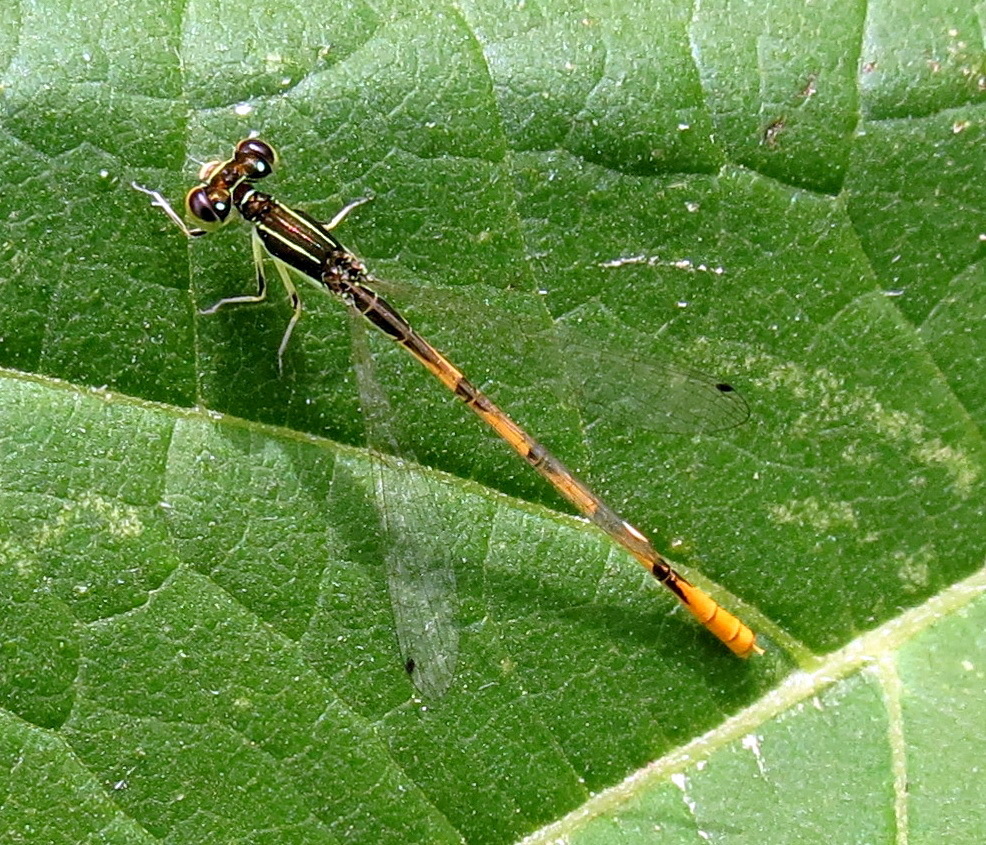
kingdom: Animalia
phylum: Arthropoda
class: Insecta
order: Odonata
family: Coenagrionidae
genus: Ischnura
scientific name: Ischnura hastata
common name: Citrine forktail
